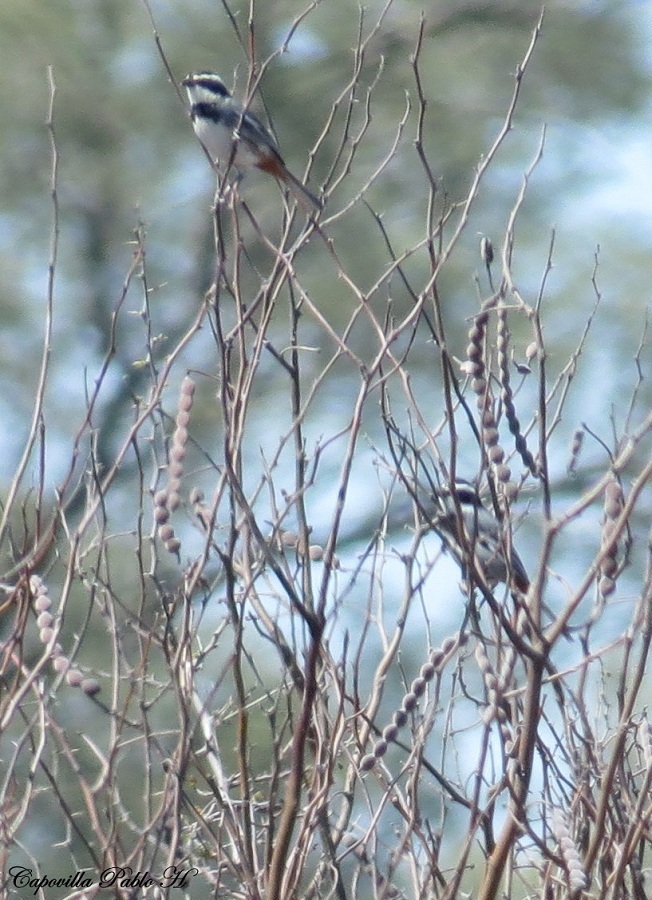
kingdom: Animalia
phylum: Chordata
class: Aves
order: Passeriformes
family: Thraupidae
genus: Microspingus
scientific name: Microspingus torquatus
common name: Ringed warbling-finch
